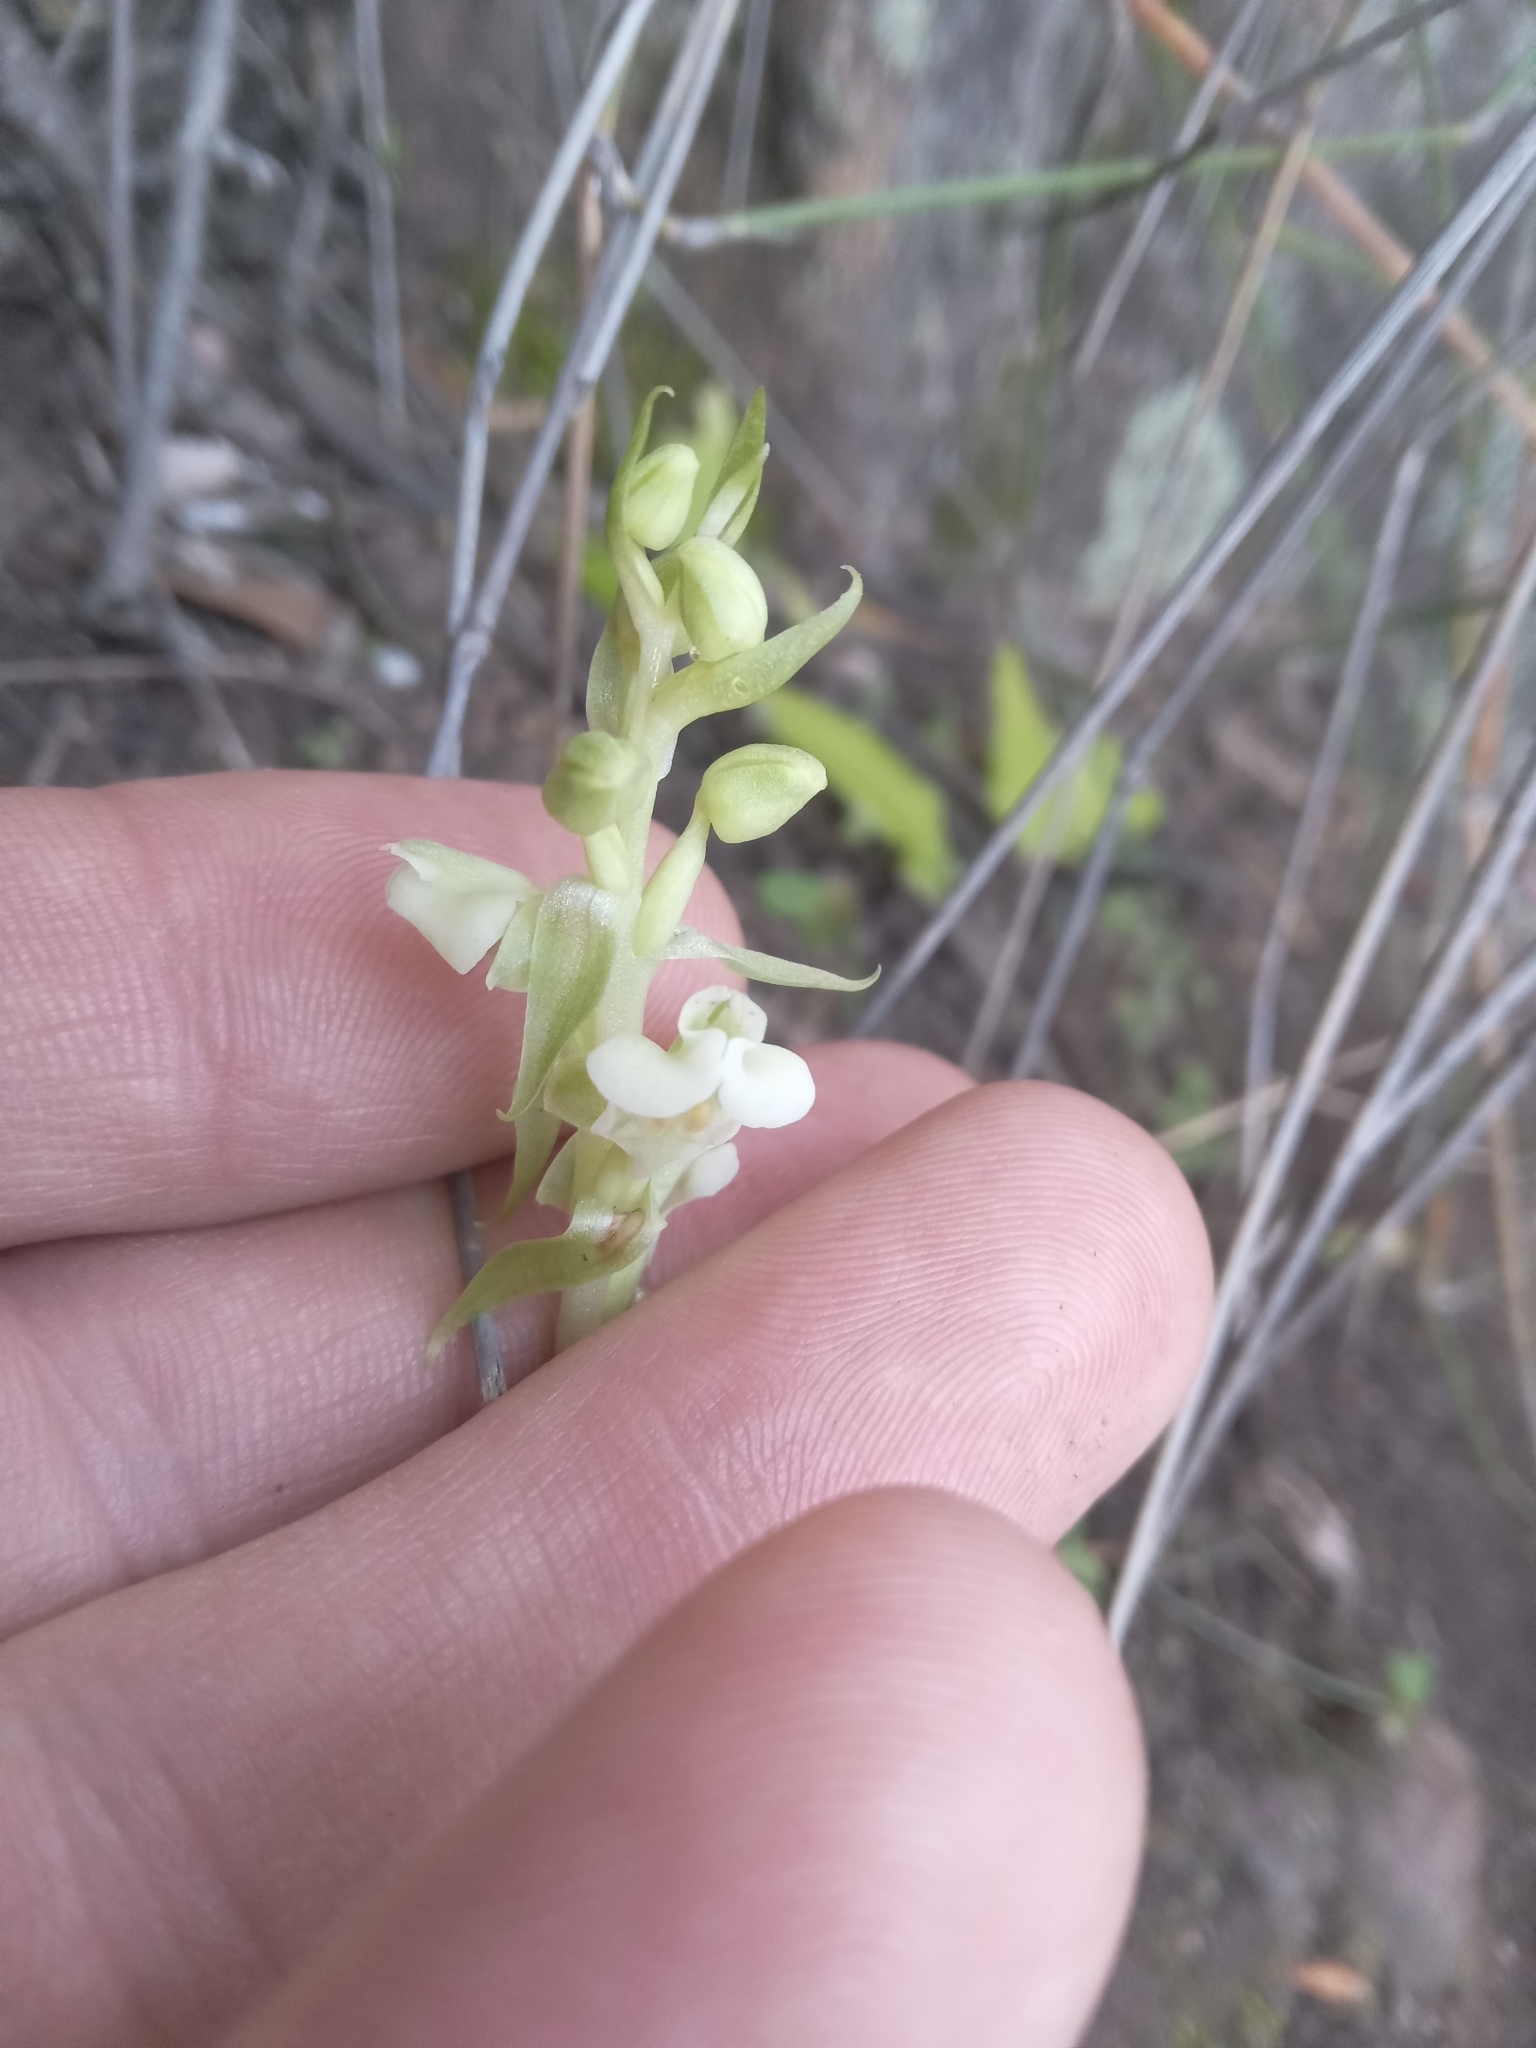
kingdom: Plantae
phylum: Tracheophyta
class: Liliopsida
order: Asparagales
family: Orchidaceae
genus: Pterygodium
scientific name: Pterygodium schelpei
